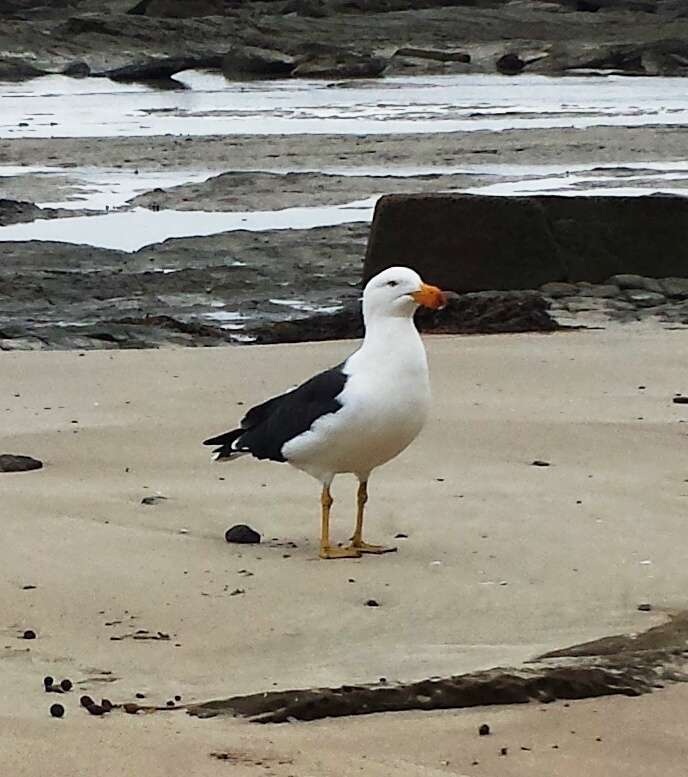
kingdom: Animalia
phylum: Chordata
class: Aves
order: Charadriiformes
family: Laridae
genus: Larus
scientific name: Larus pacificus
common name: Pacific gull
